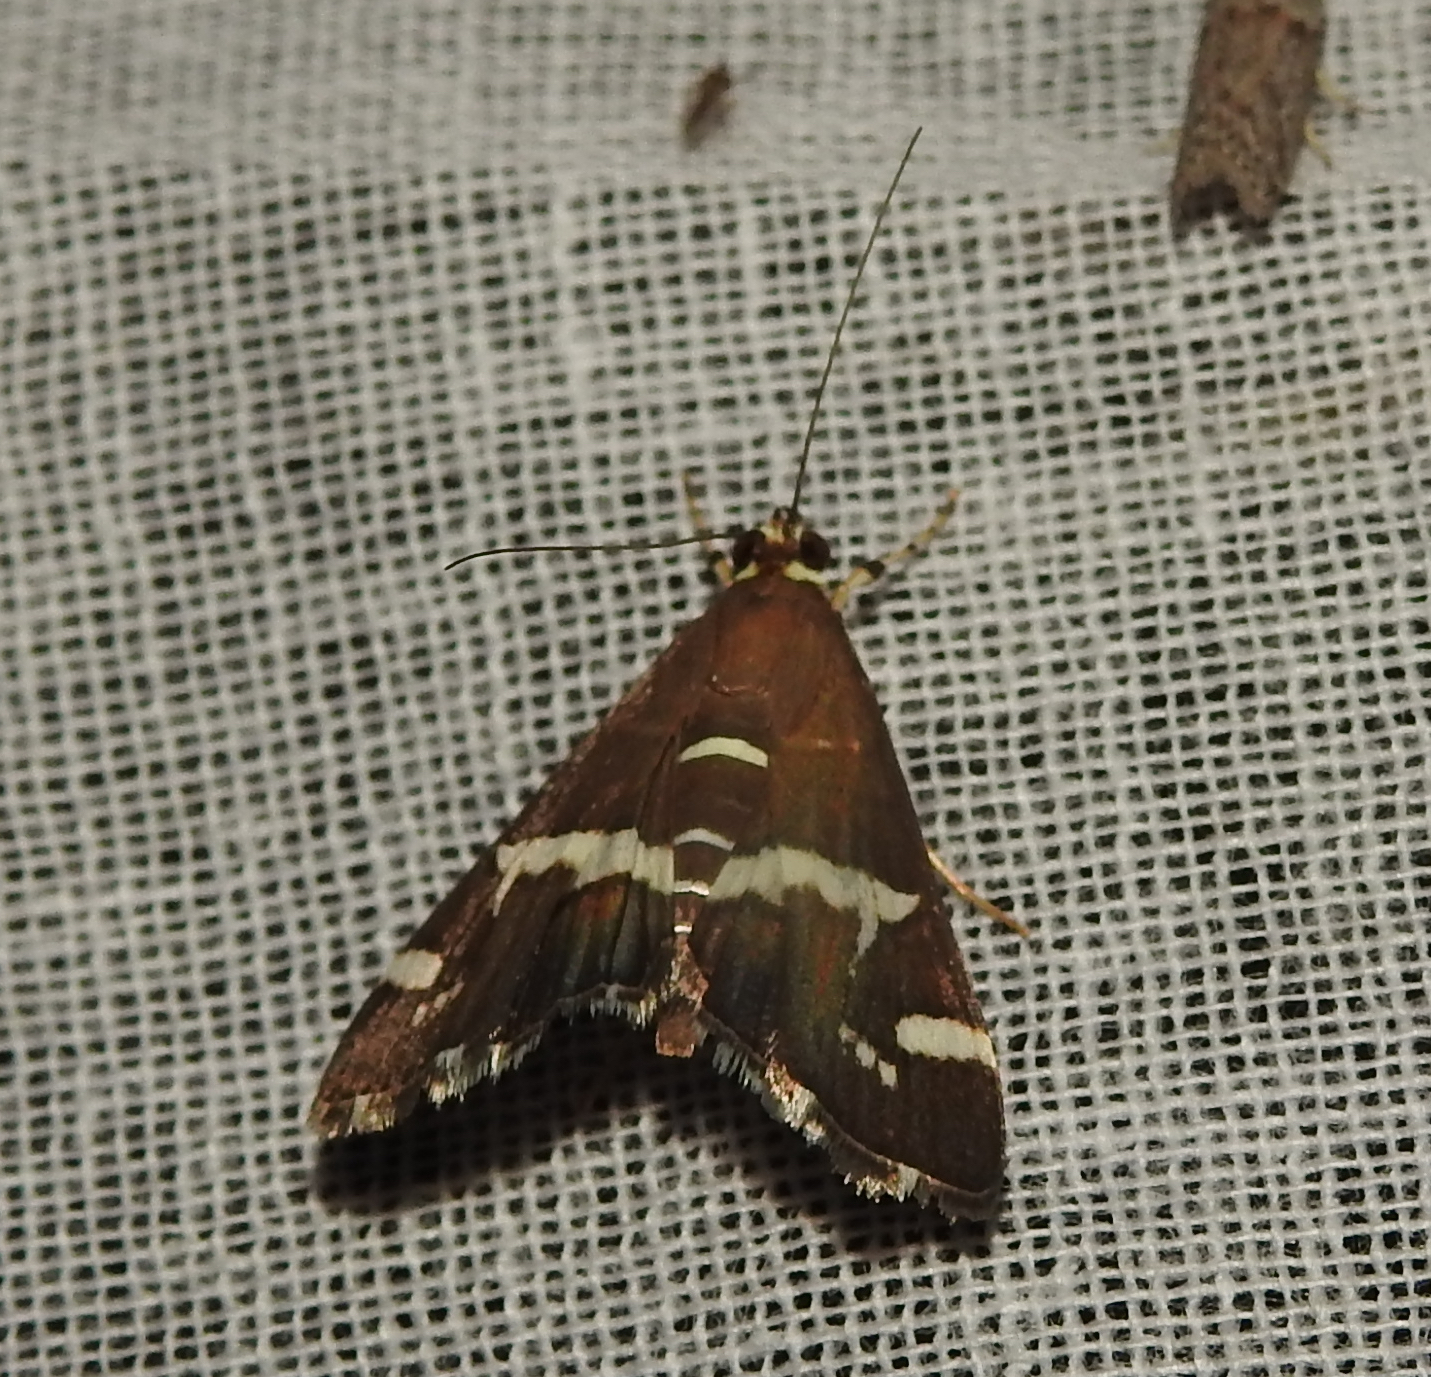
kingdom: Animalia
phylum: Arthropoda
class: Insecta
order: Lepidoptera
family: Crambidae
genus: Spoladea
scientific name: Spoladea recurvalis
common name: Beet webworm moth
